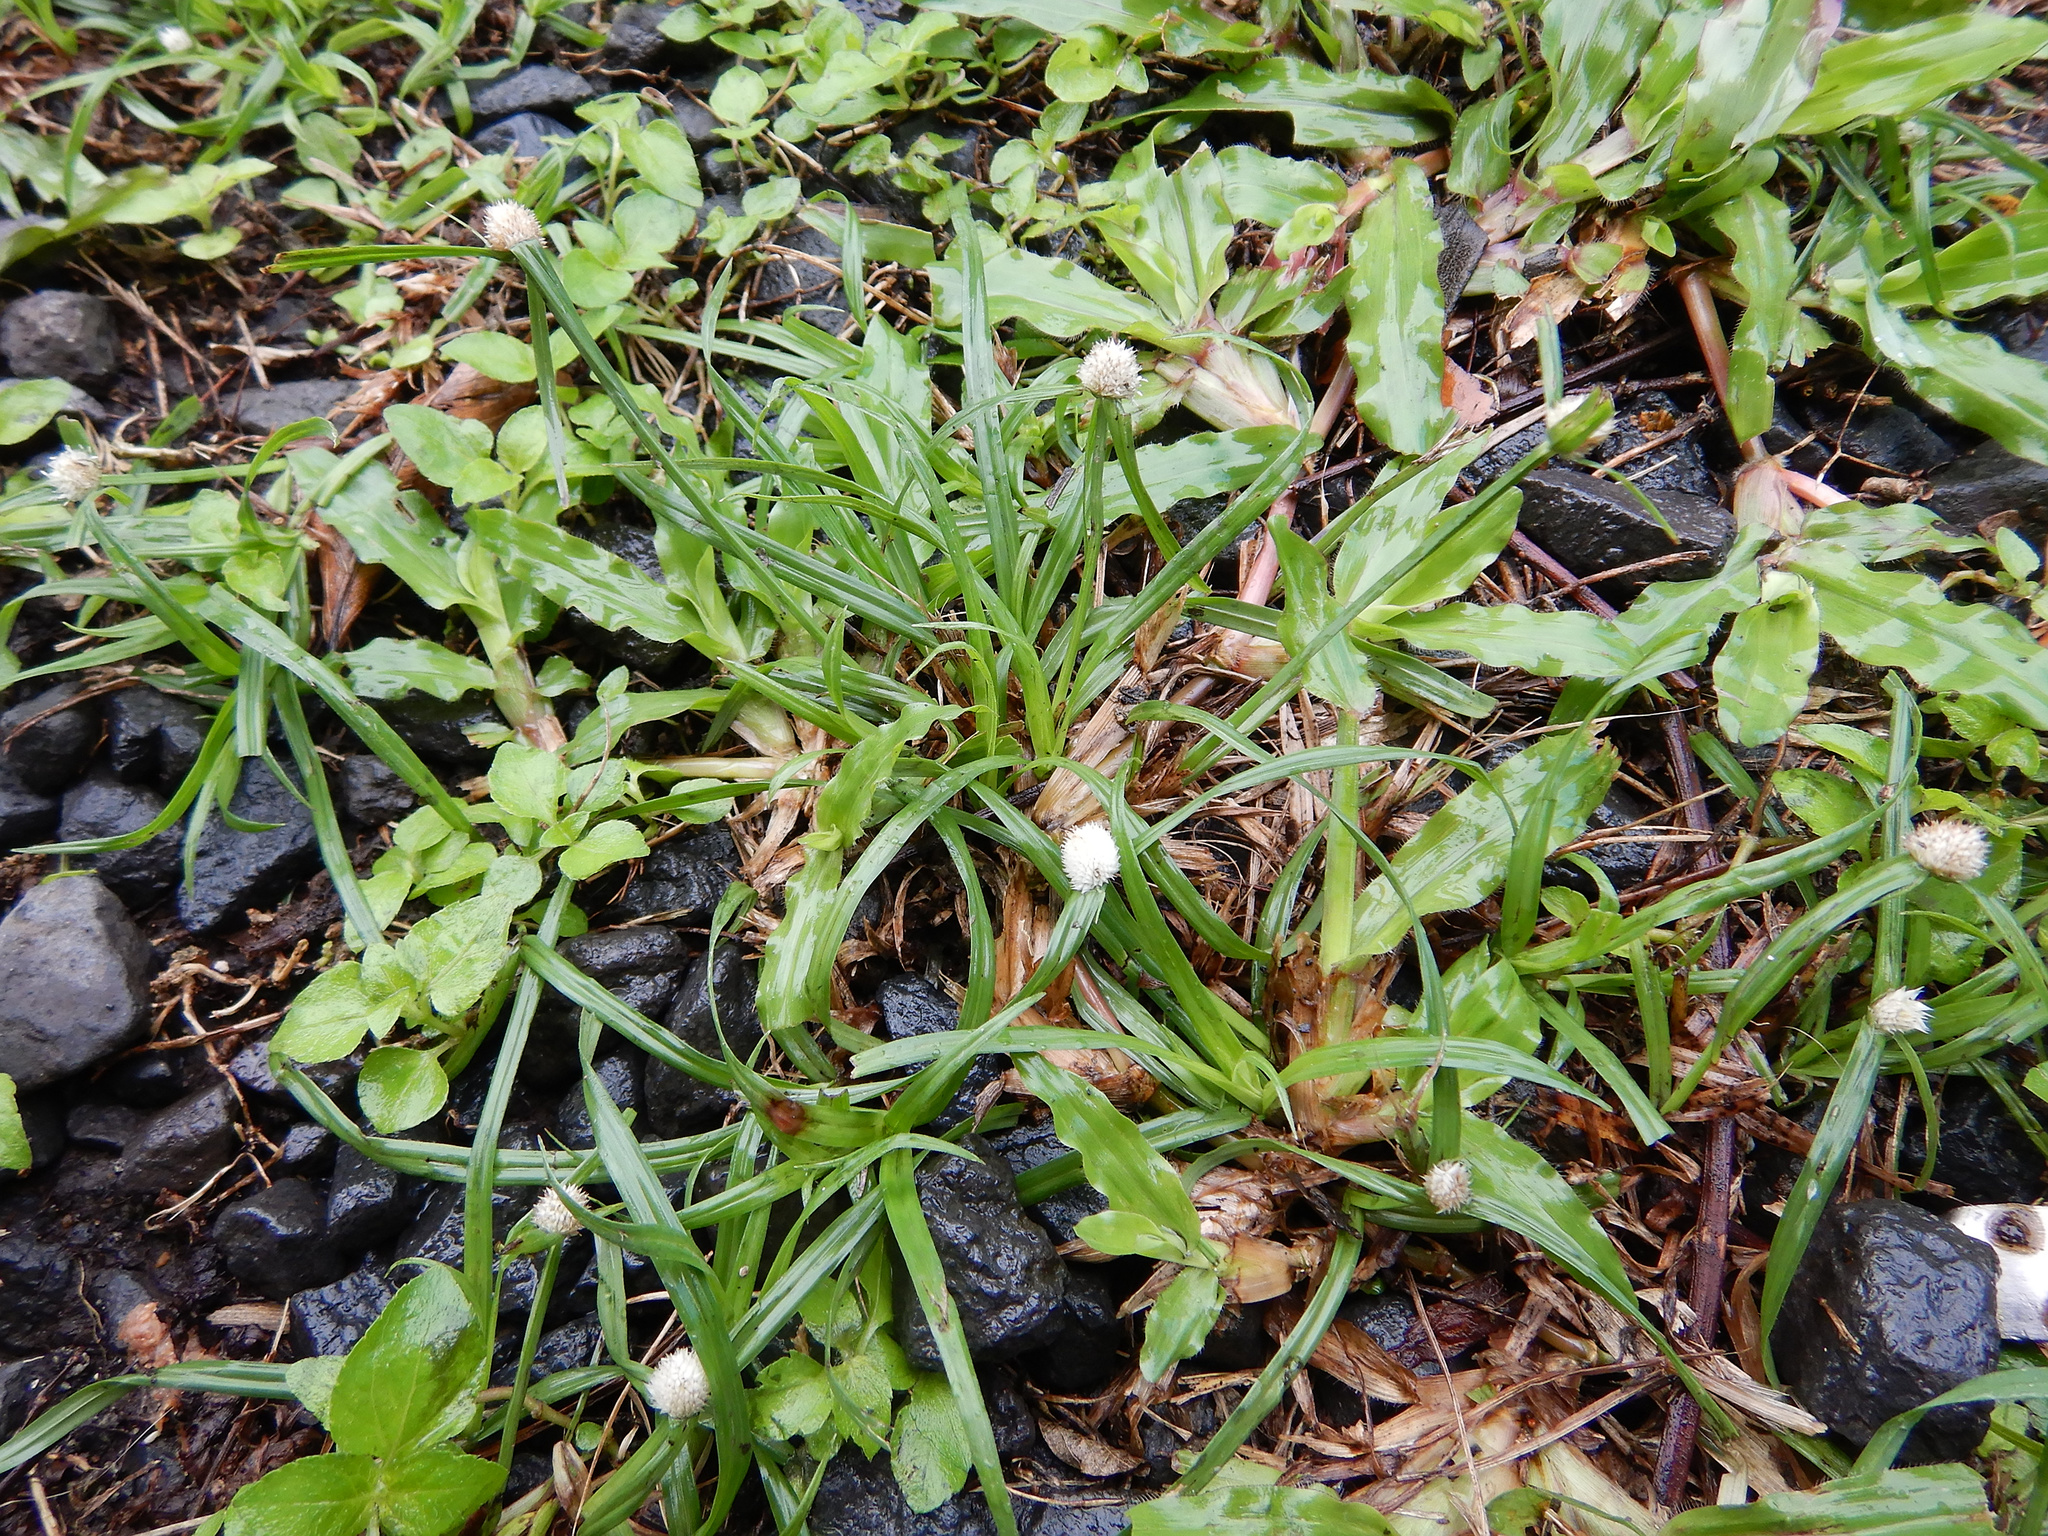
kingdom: Plantae
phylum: Tracheophyta
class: Liliopsida
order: Poales
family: Cyperaceae
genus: Cyperus
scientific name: Cyperus mindorensis
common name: Flatsedge
